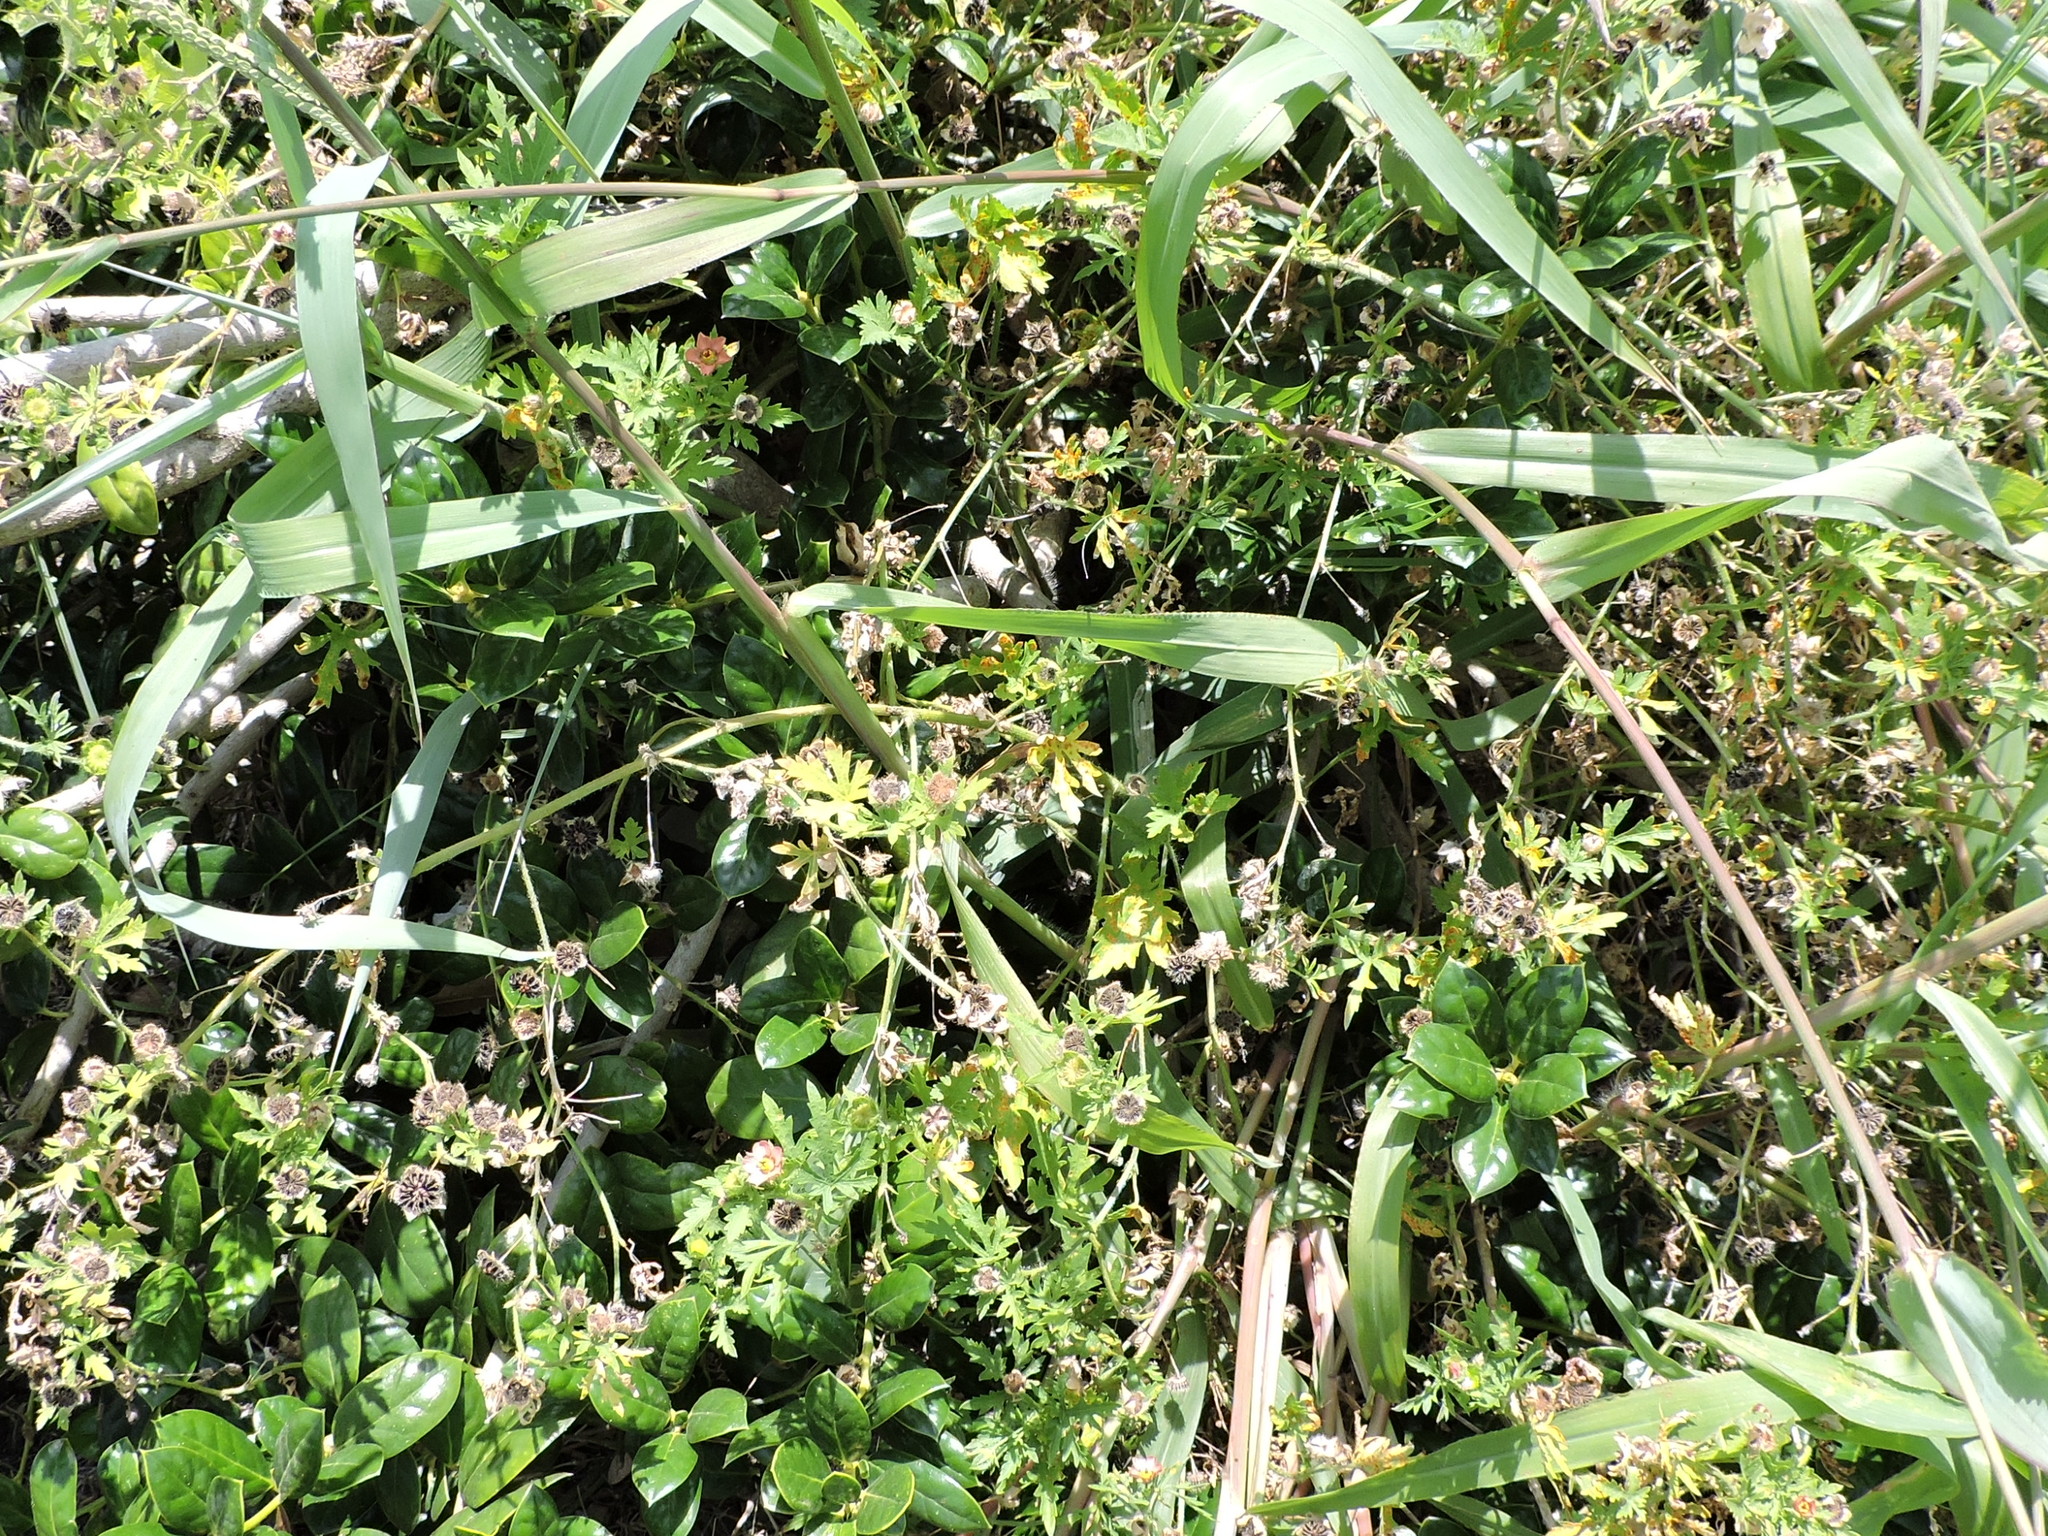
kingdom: Plantae
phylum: Tracheophyta
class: Magnoliopsida
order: Malvales
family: Malvaceae
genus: Modiola
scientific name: Modiola caroliniana
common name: Carolina bristlemallow
